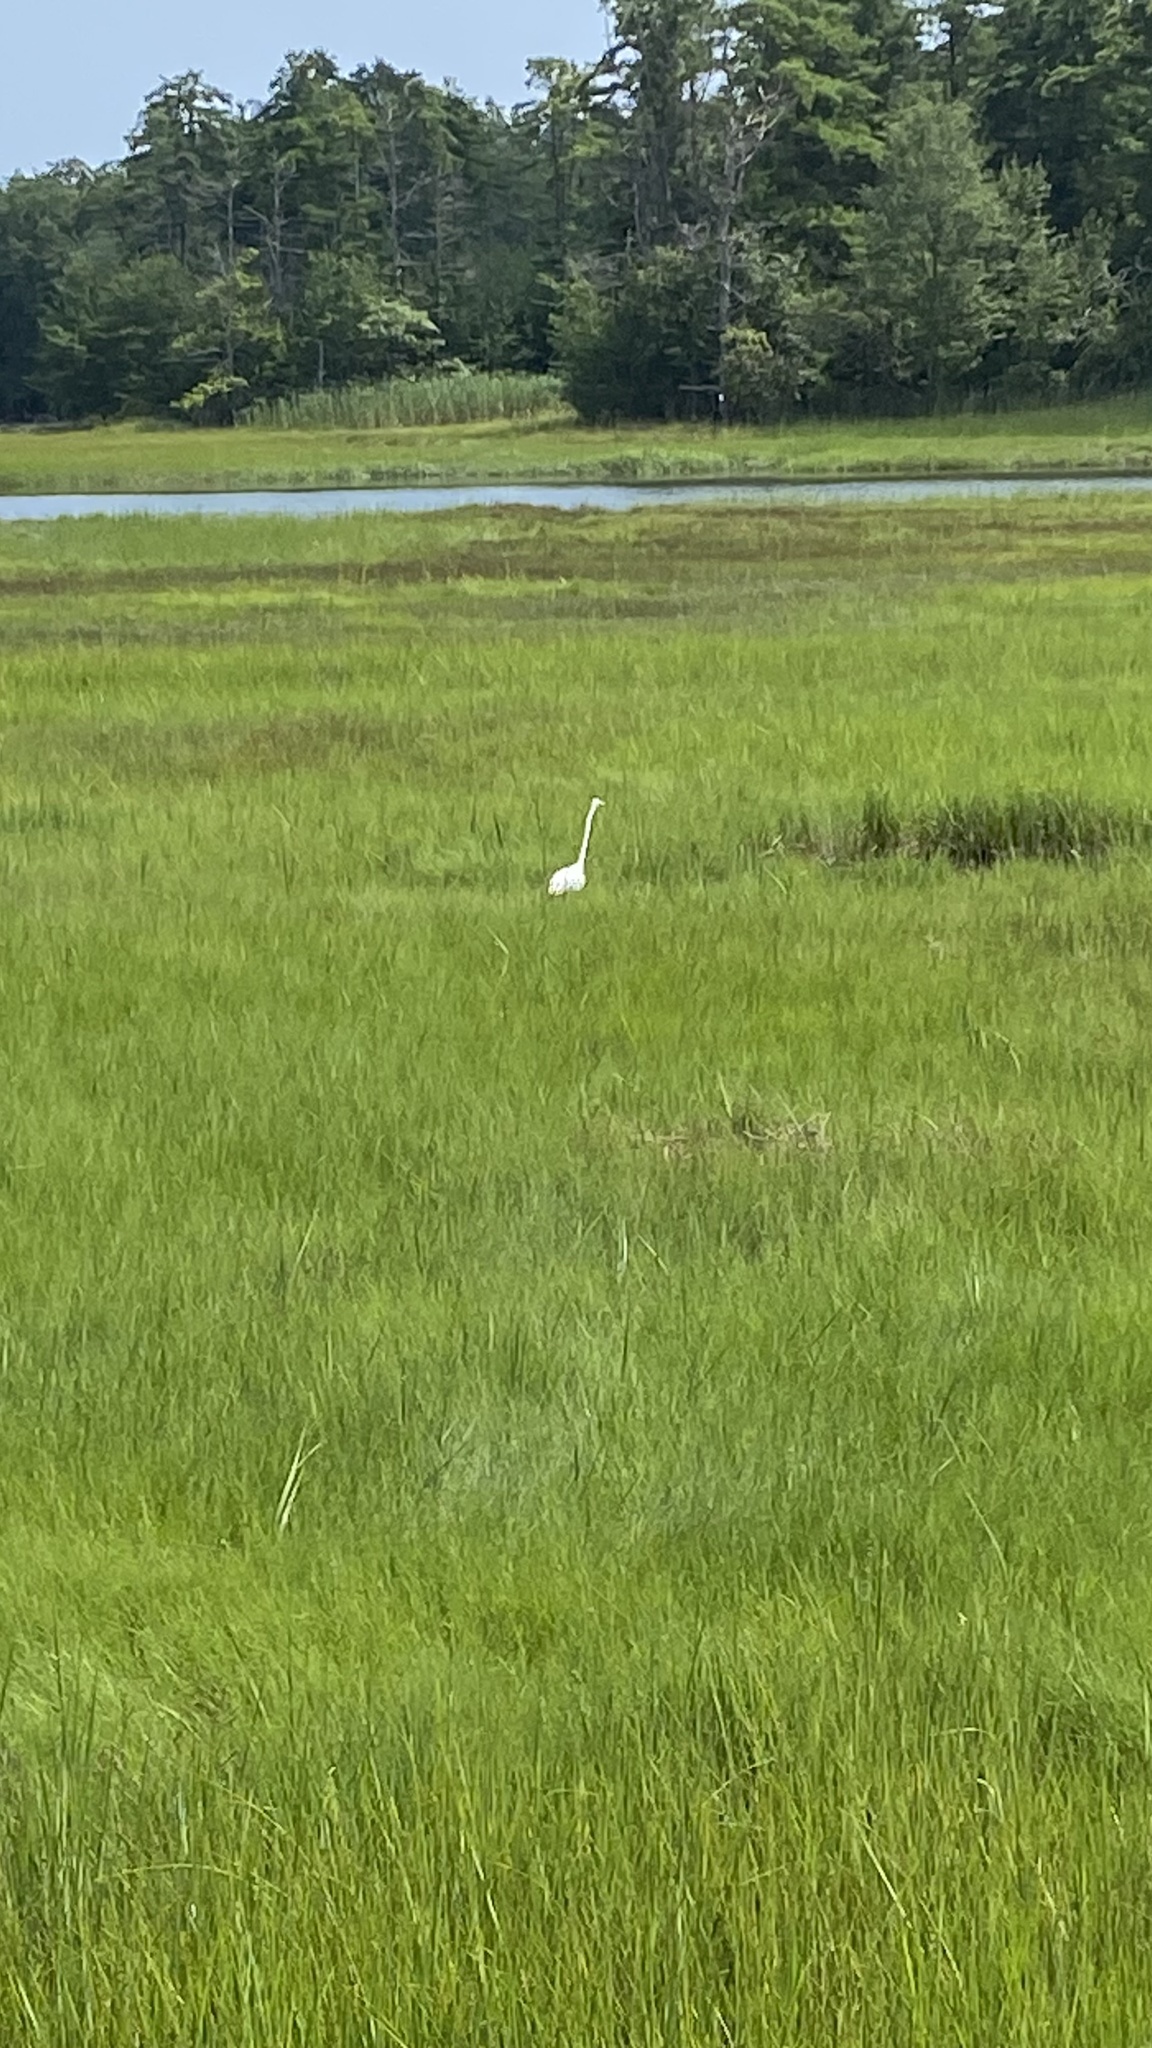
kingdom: Animalia
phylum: Chordata
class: Aves
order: Pelecaniformes
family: Ardeidae
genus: Ardea
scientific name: Ardea alba
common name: Great egret
